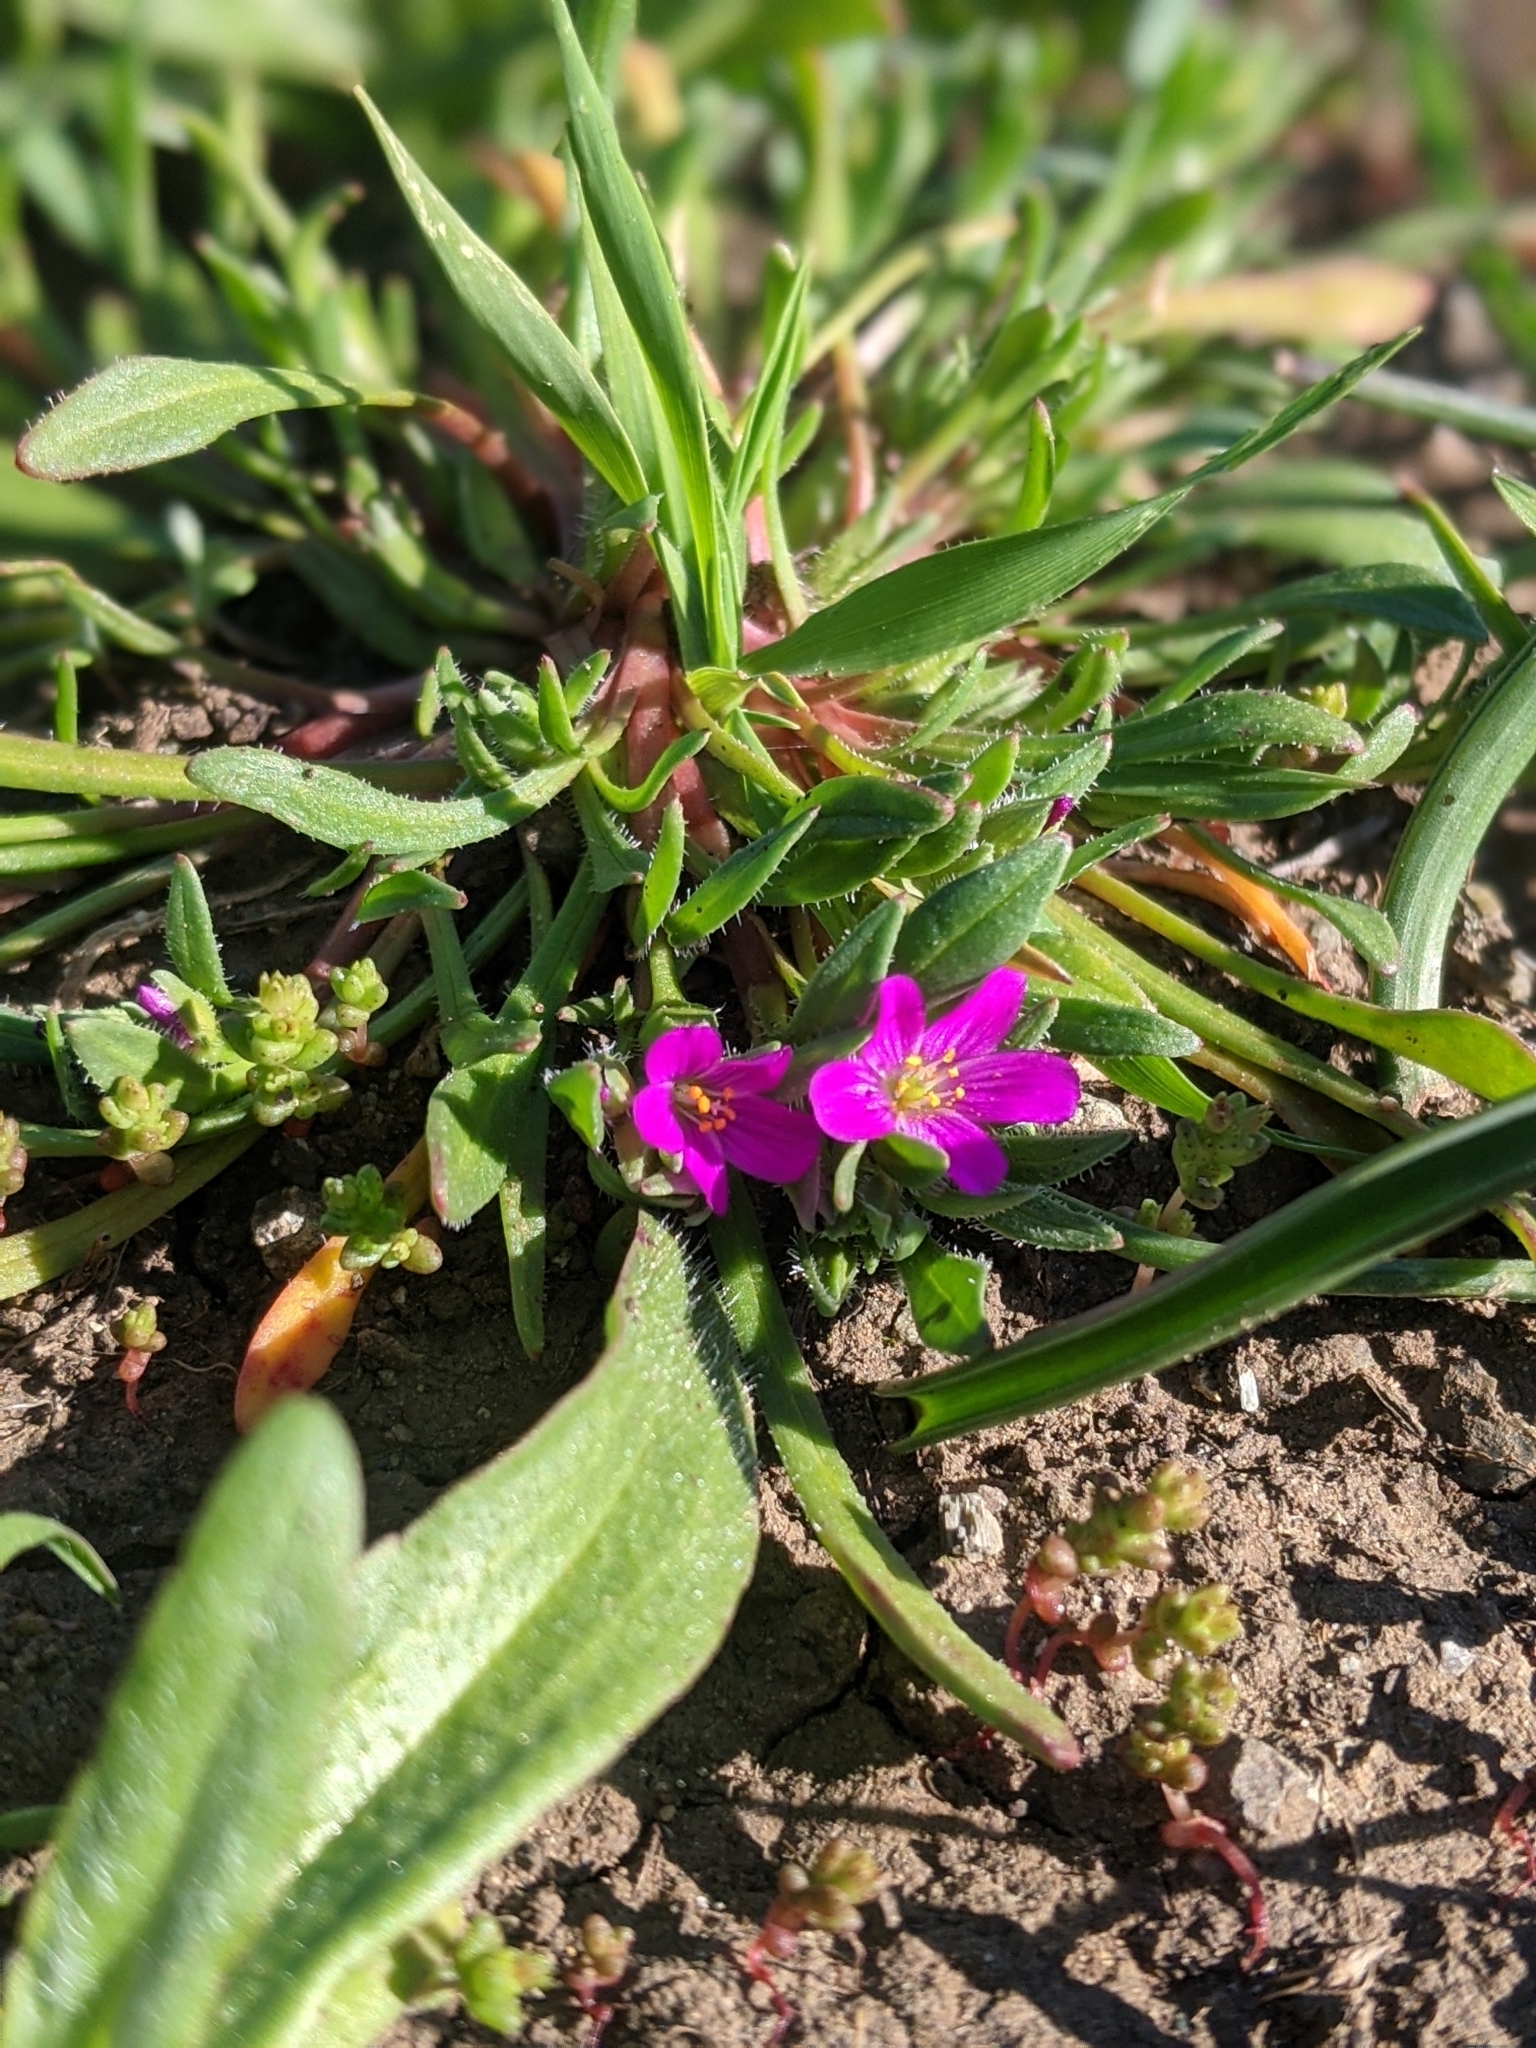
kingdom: Plantae
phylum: Tracheophyta
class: Magnoliopsida
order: Caryophyllales
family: Montiaceae
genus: Calandrinia
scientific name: Calandrinia menziesii
